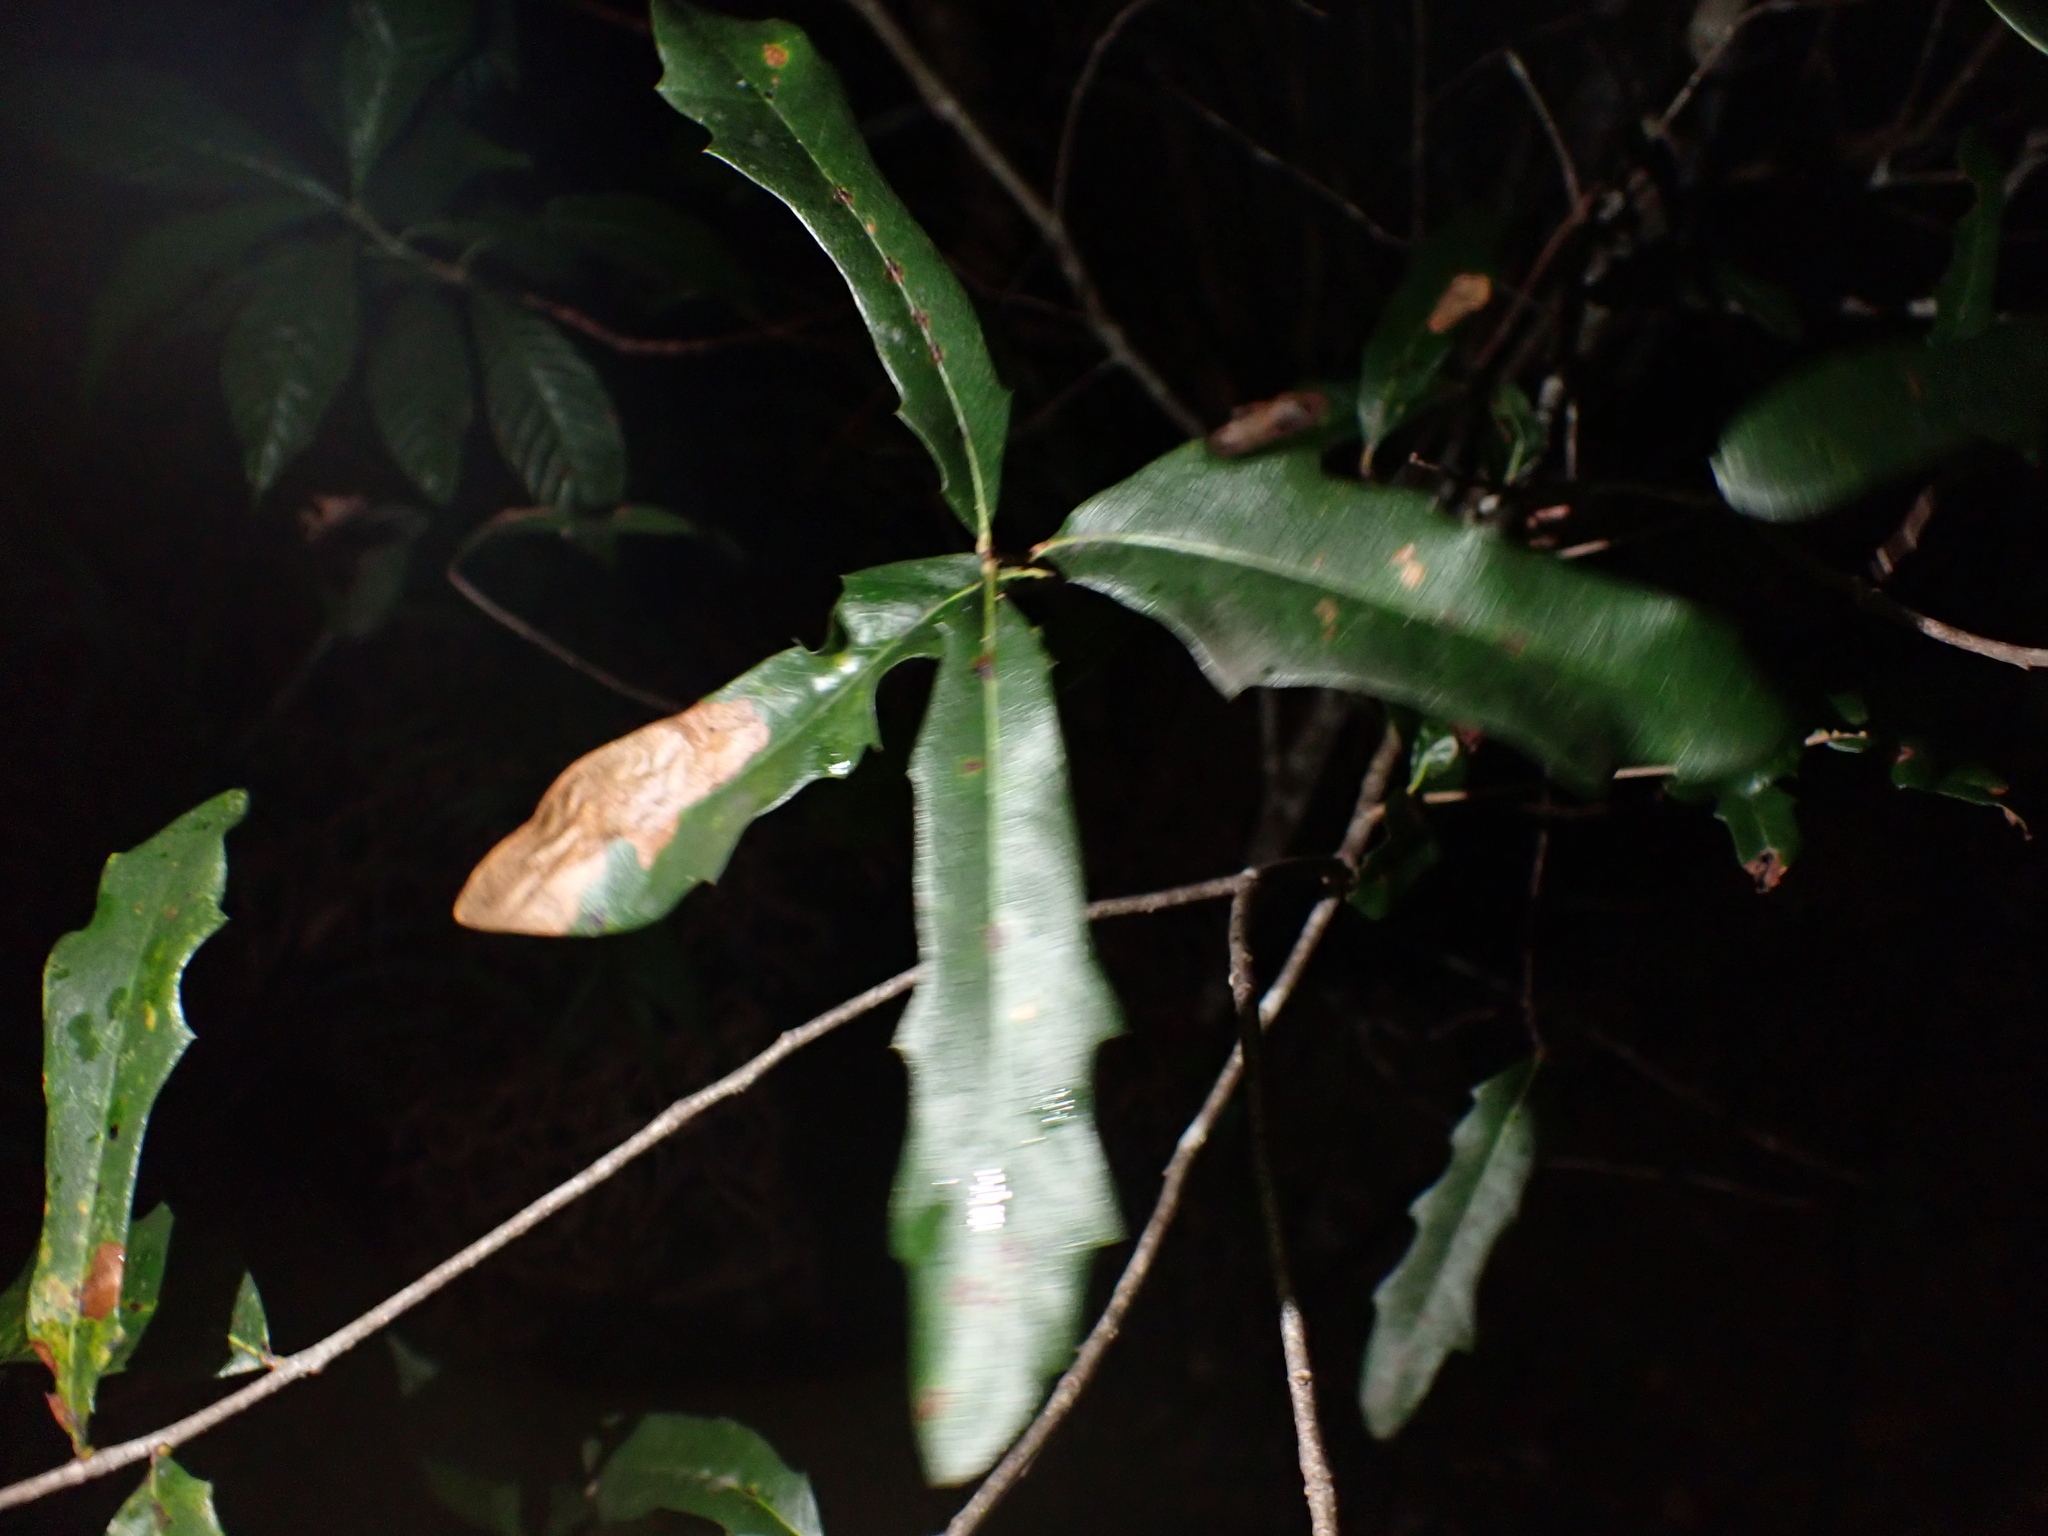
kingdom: Plantae
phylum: Tracheophyta
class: Magnoliopsida
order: Fagales
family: Fagaceae
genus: Quercus
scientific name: Quercus virginiana
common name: Southern live oak
